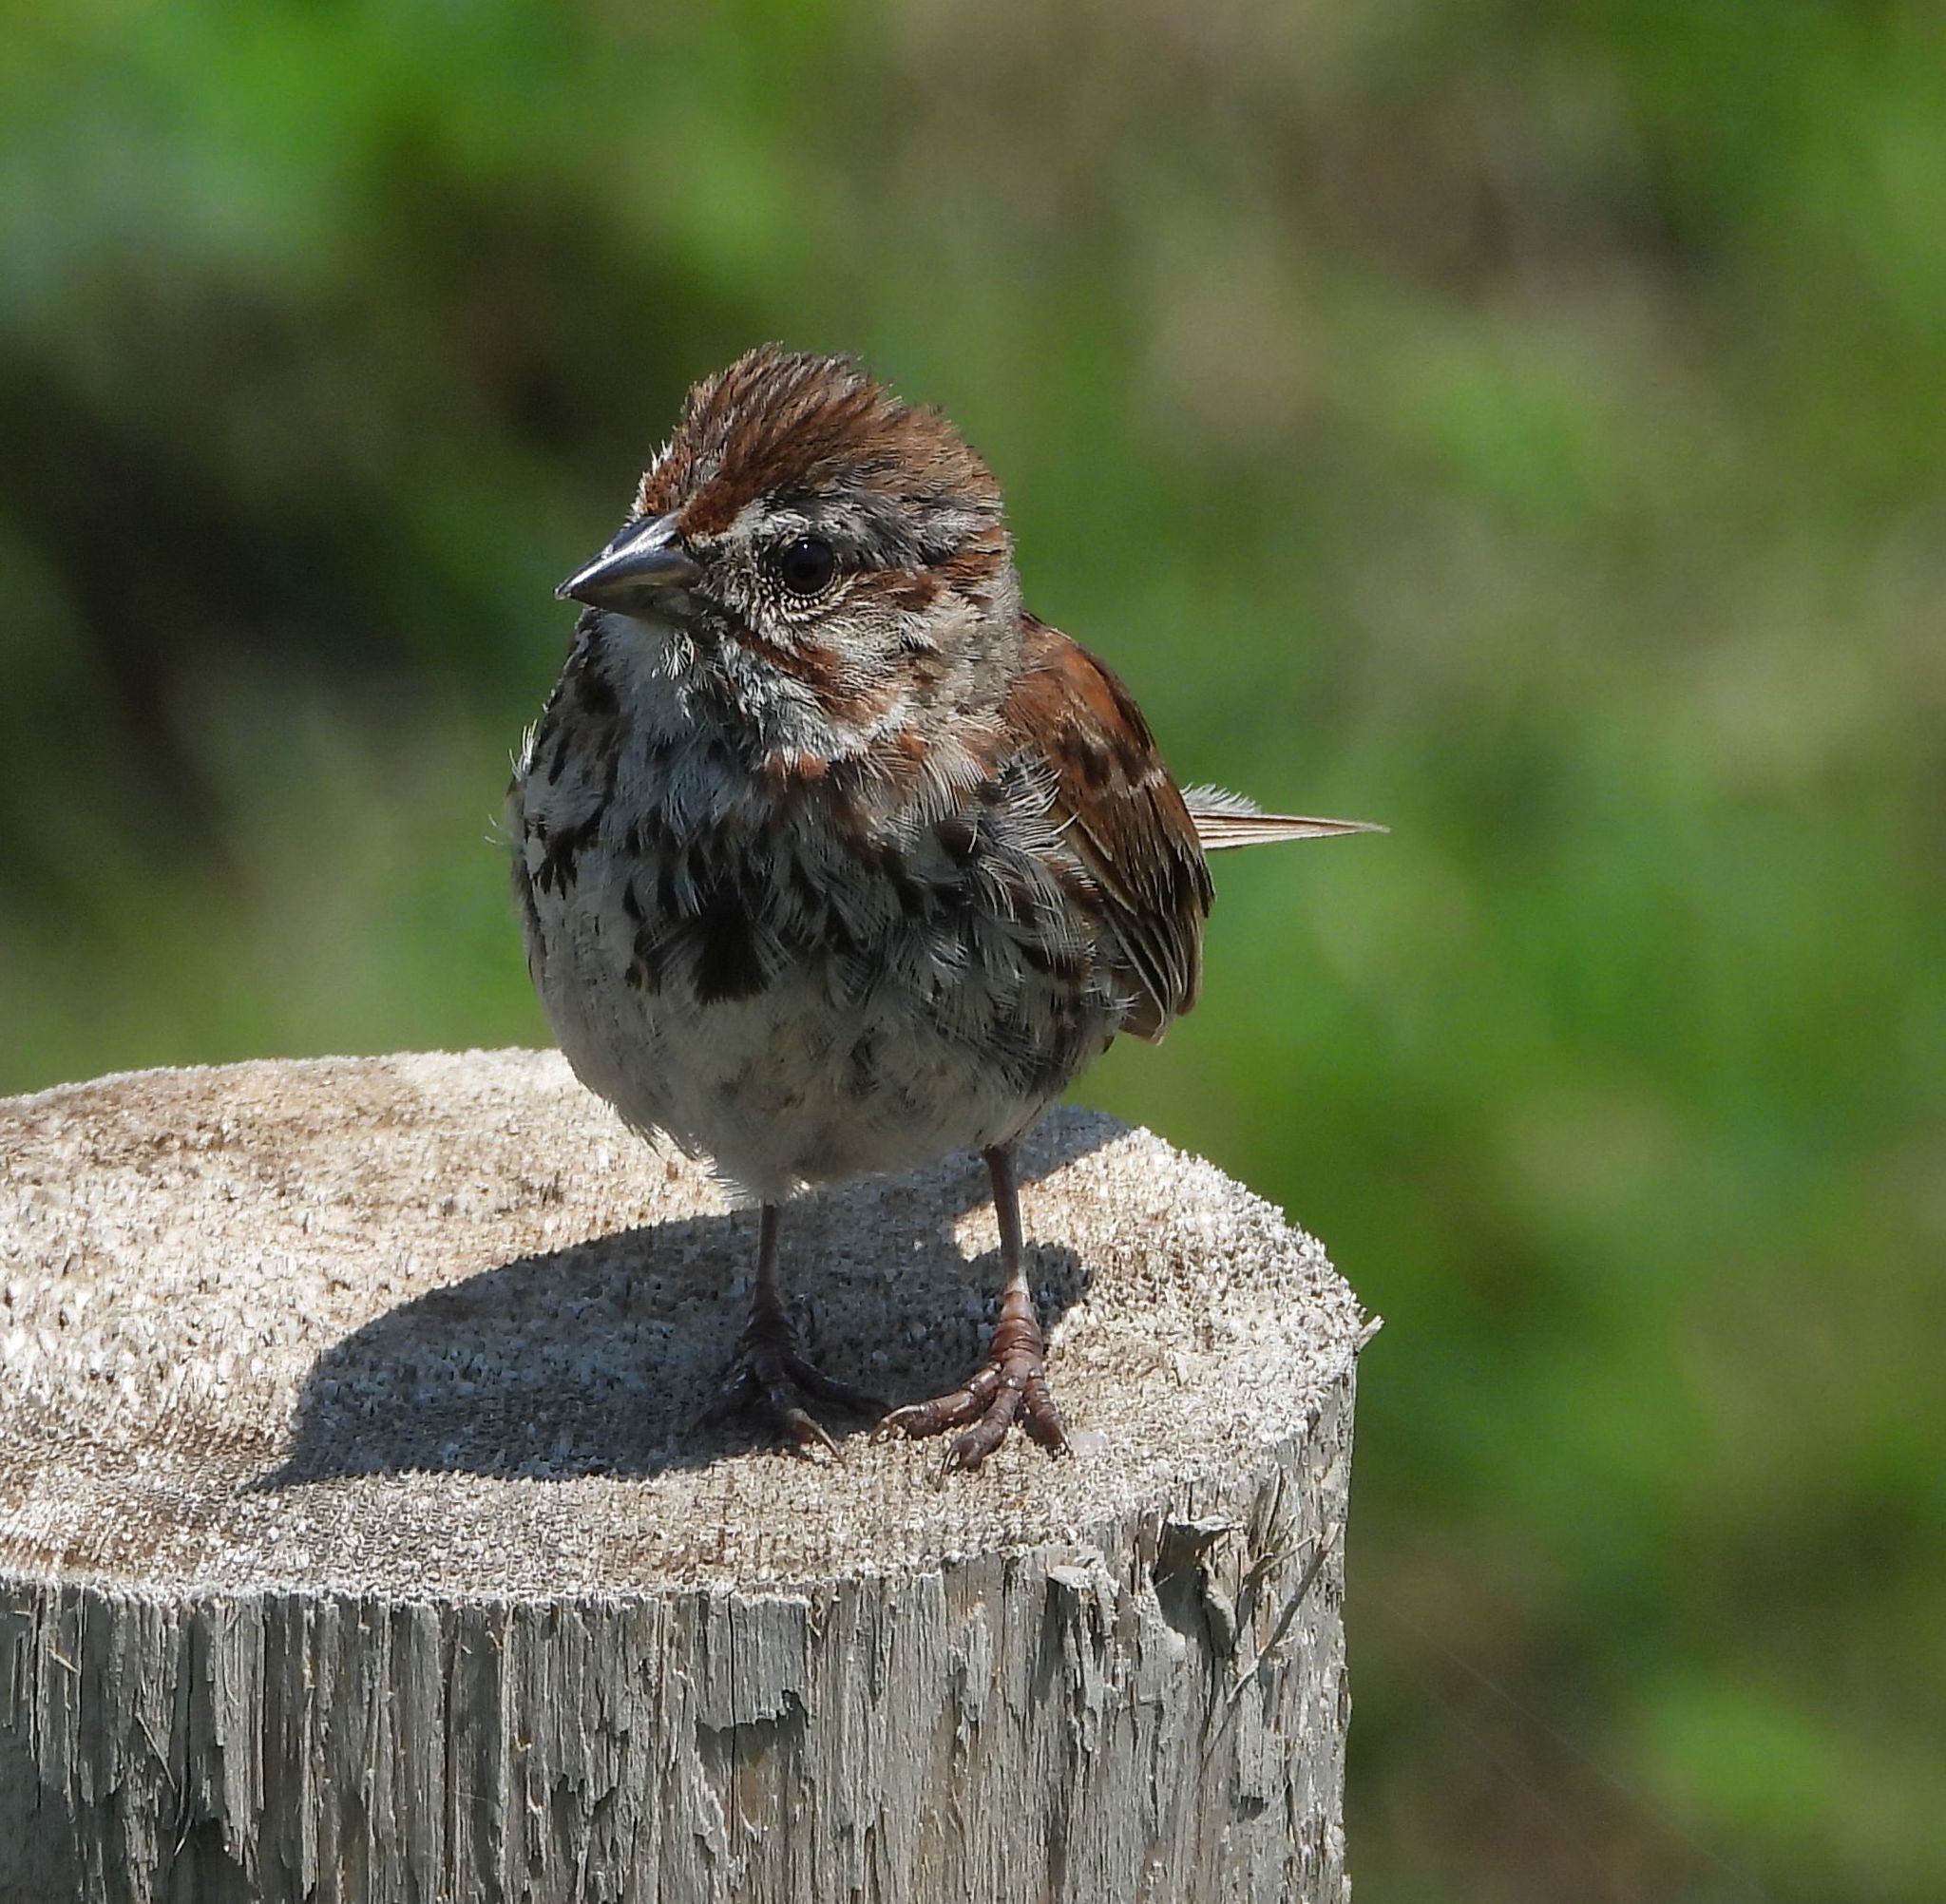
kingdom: Animalia
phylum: Chordata
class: Aves
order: Passeriformes
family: Passerellidae
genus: Melospiza
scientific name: Melospiza melodia
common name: Song sparrow
